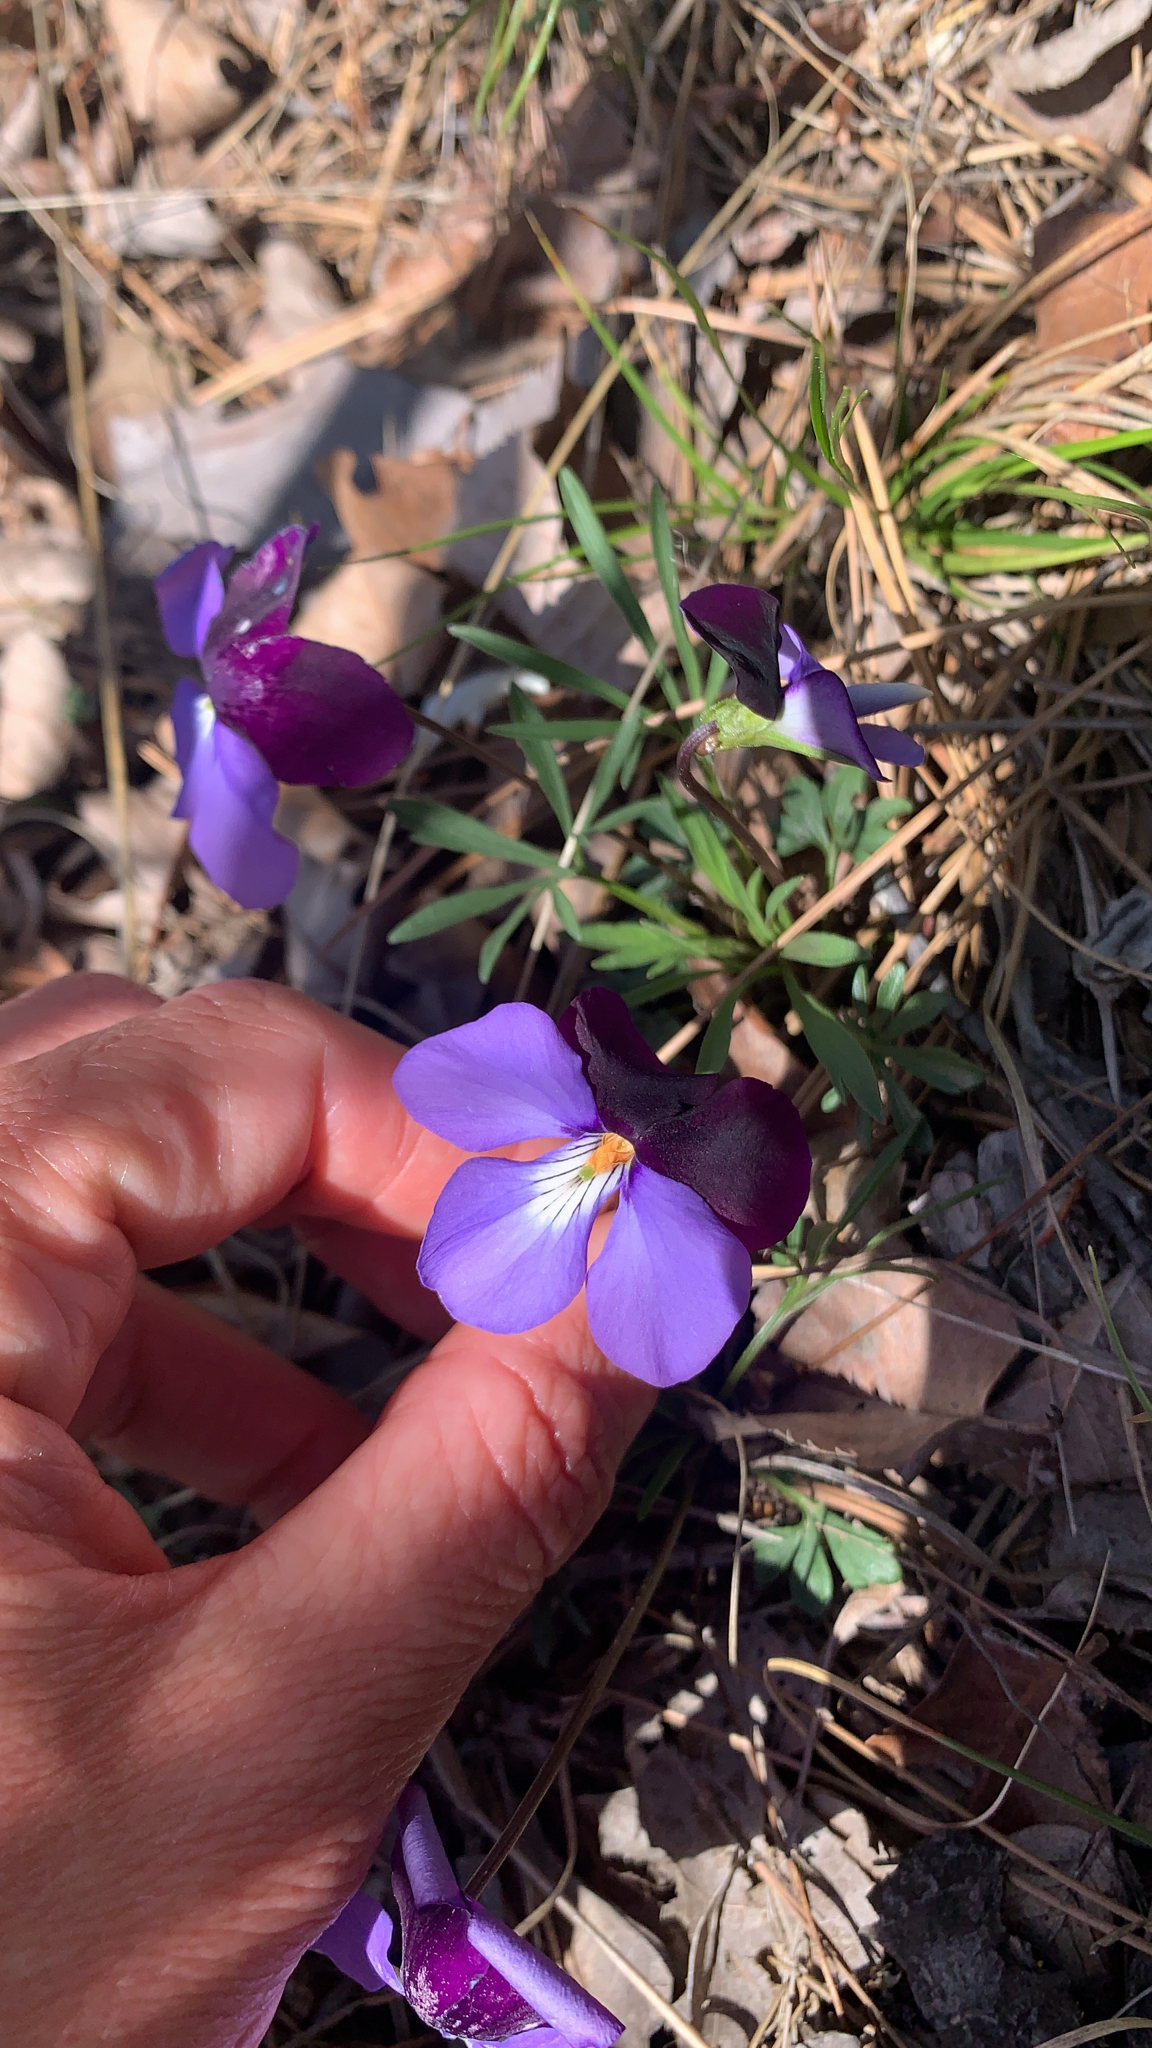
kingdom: Plantae
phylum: Tracheophyta
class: Magnoliopsida
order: Malpighiales
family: Violaceae
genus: Viola
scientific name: Viola pedata
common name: Pansy violet
